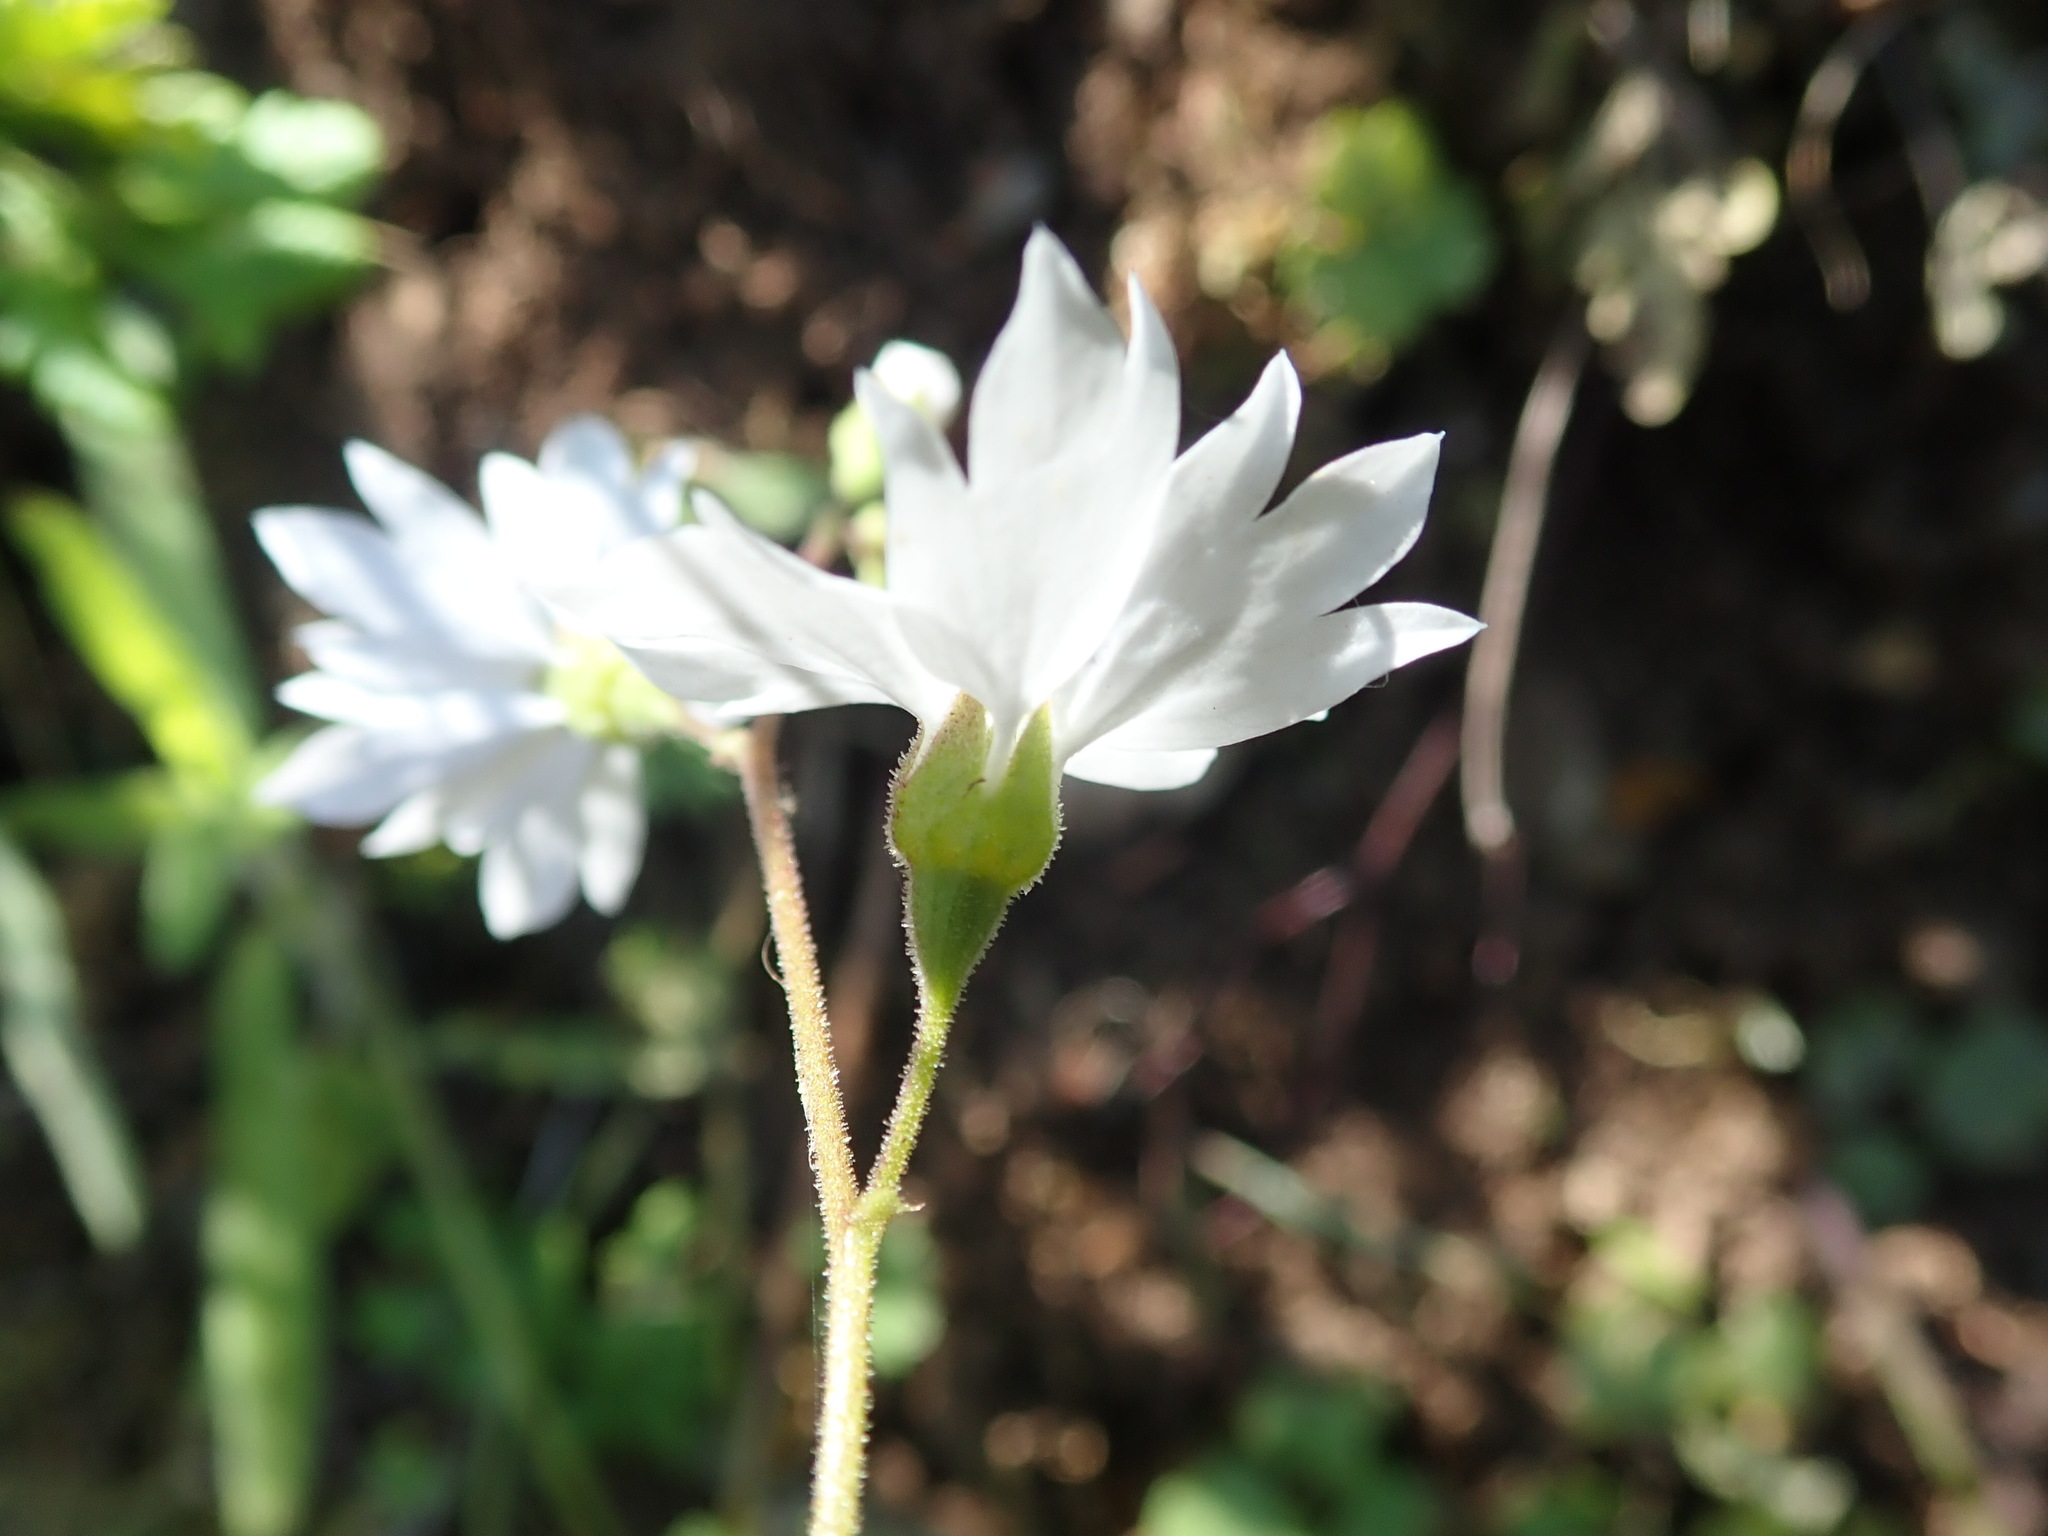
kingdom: Plantae
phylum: Tracheophyta
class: Magnoliopsida
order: Saxifragales
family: Saxifragaceae
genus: Lithophragma
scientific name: Lithophragma affine
